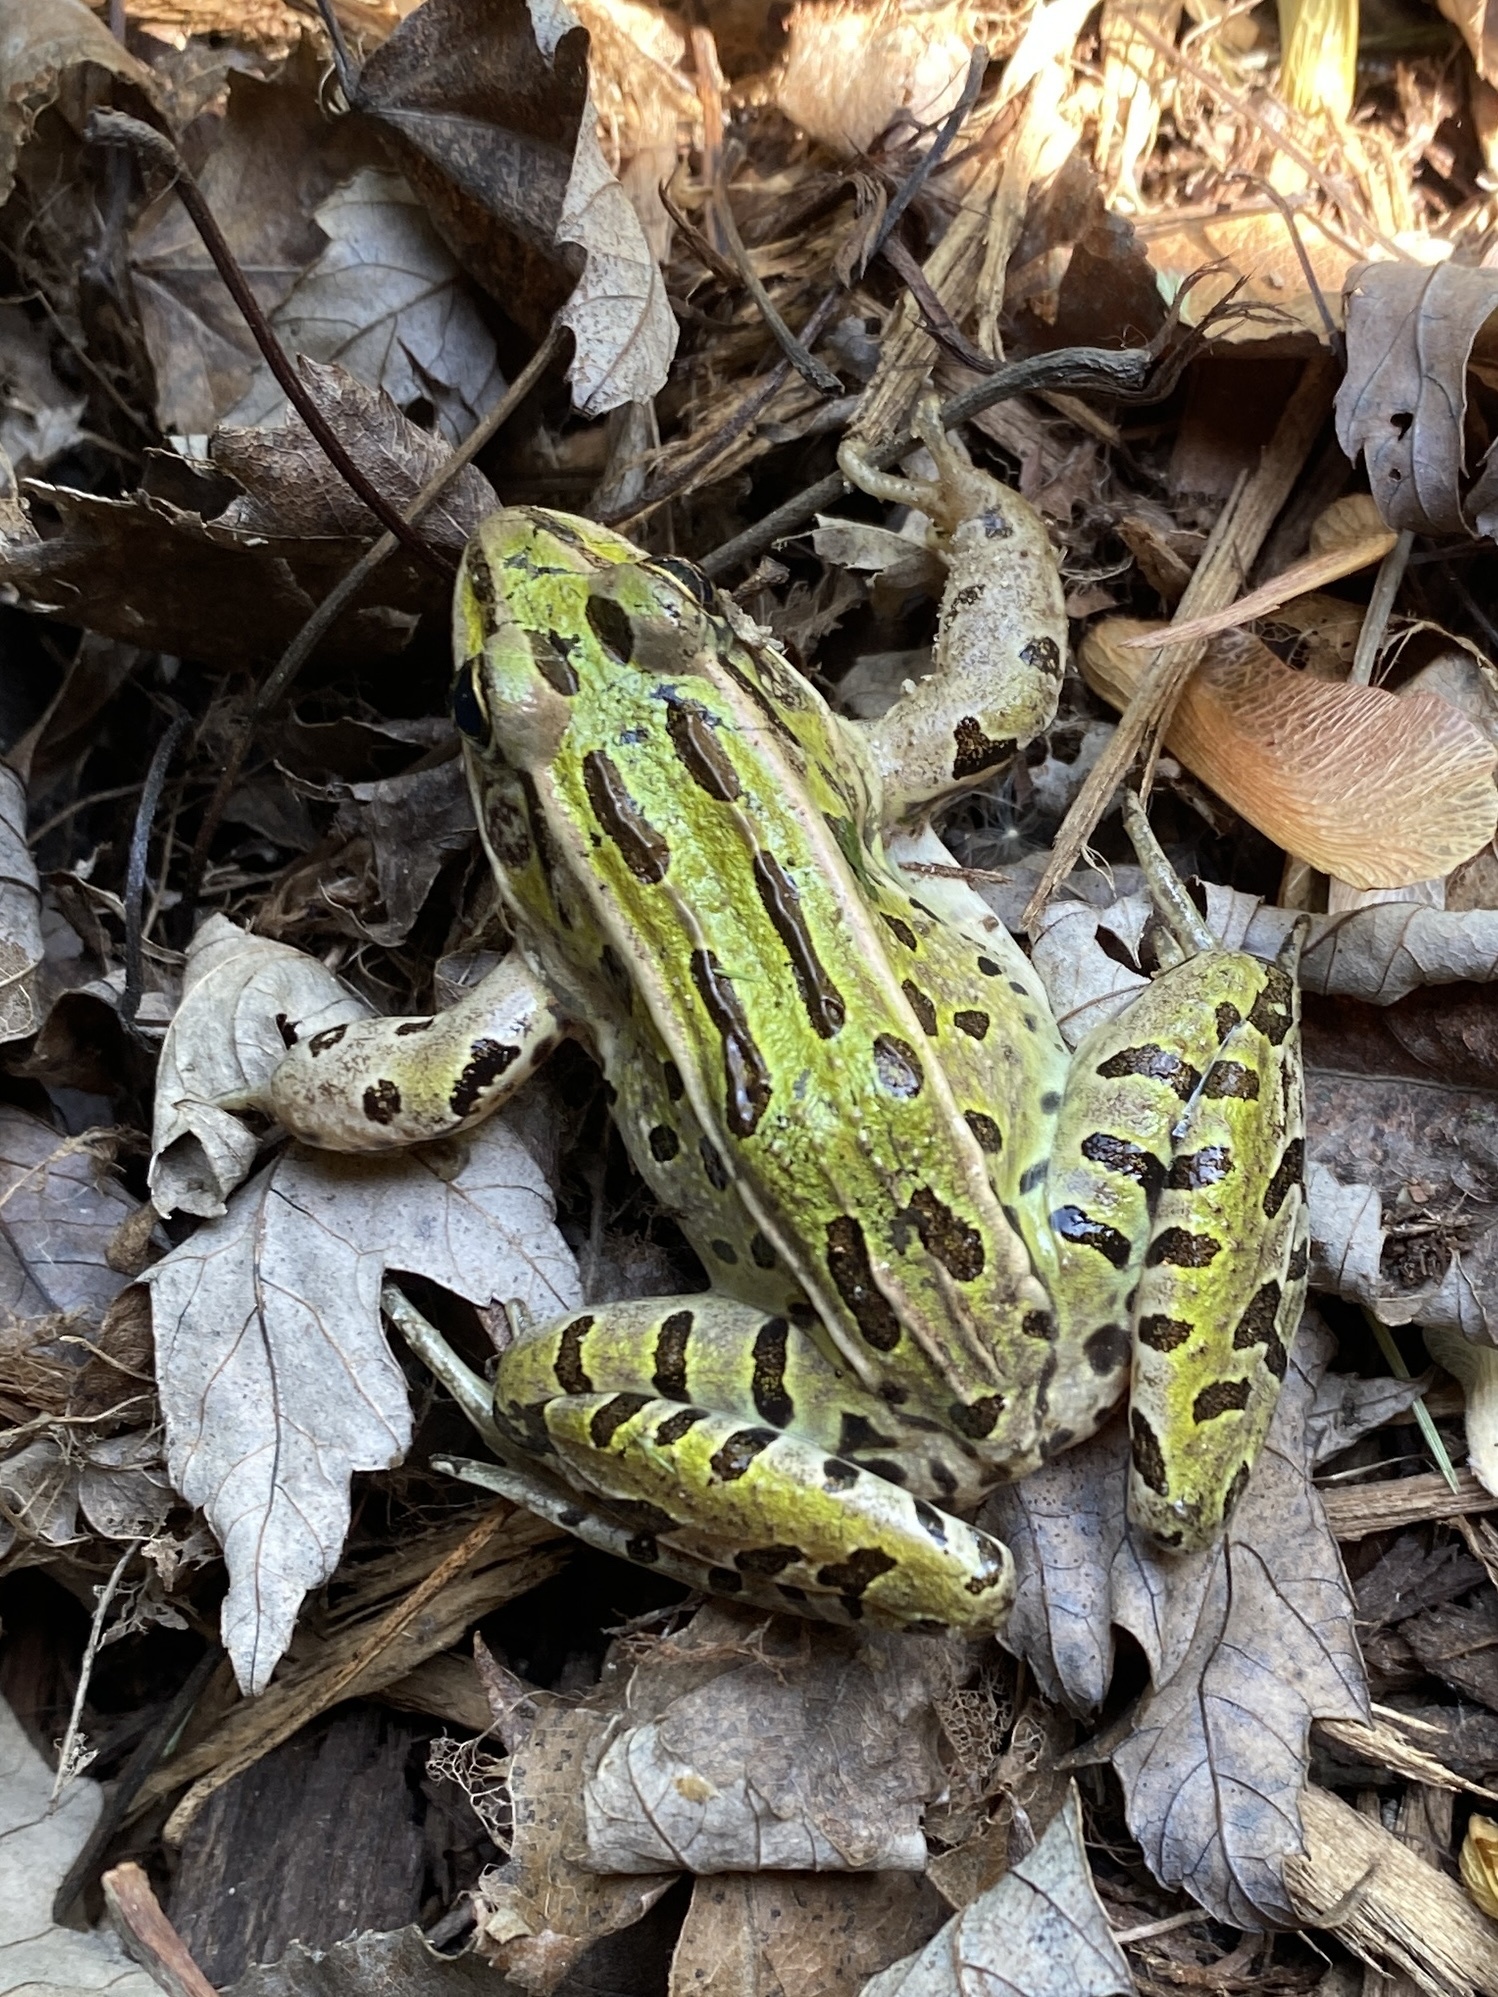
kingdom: Animalia
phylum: Chordata
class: Amphibia
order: Anura
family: Ranidae
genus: Lithobates
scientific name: Lithobates pipiens
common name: Northern leopard frog
